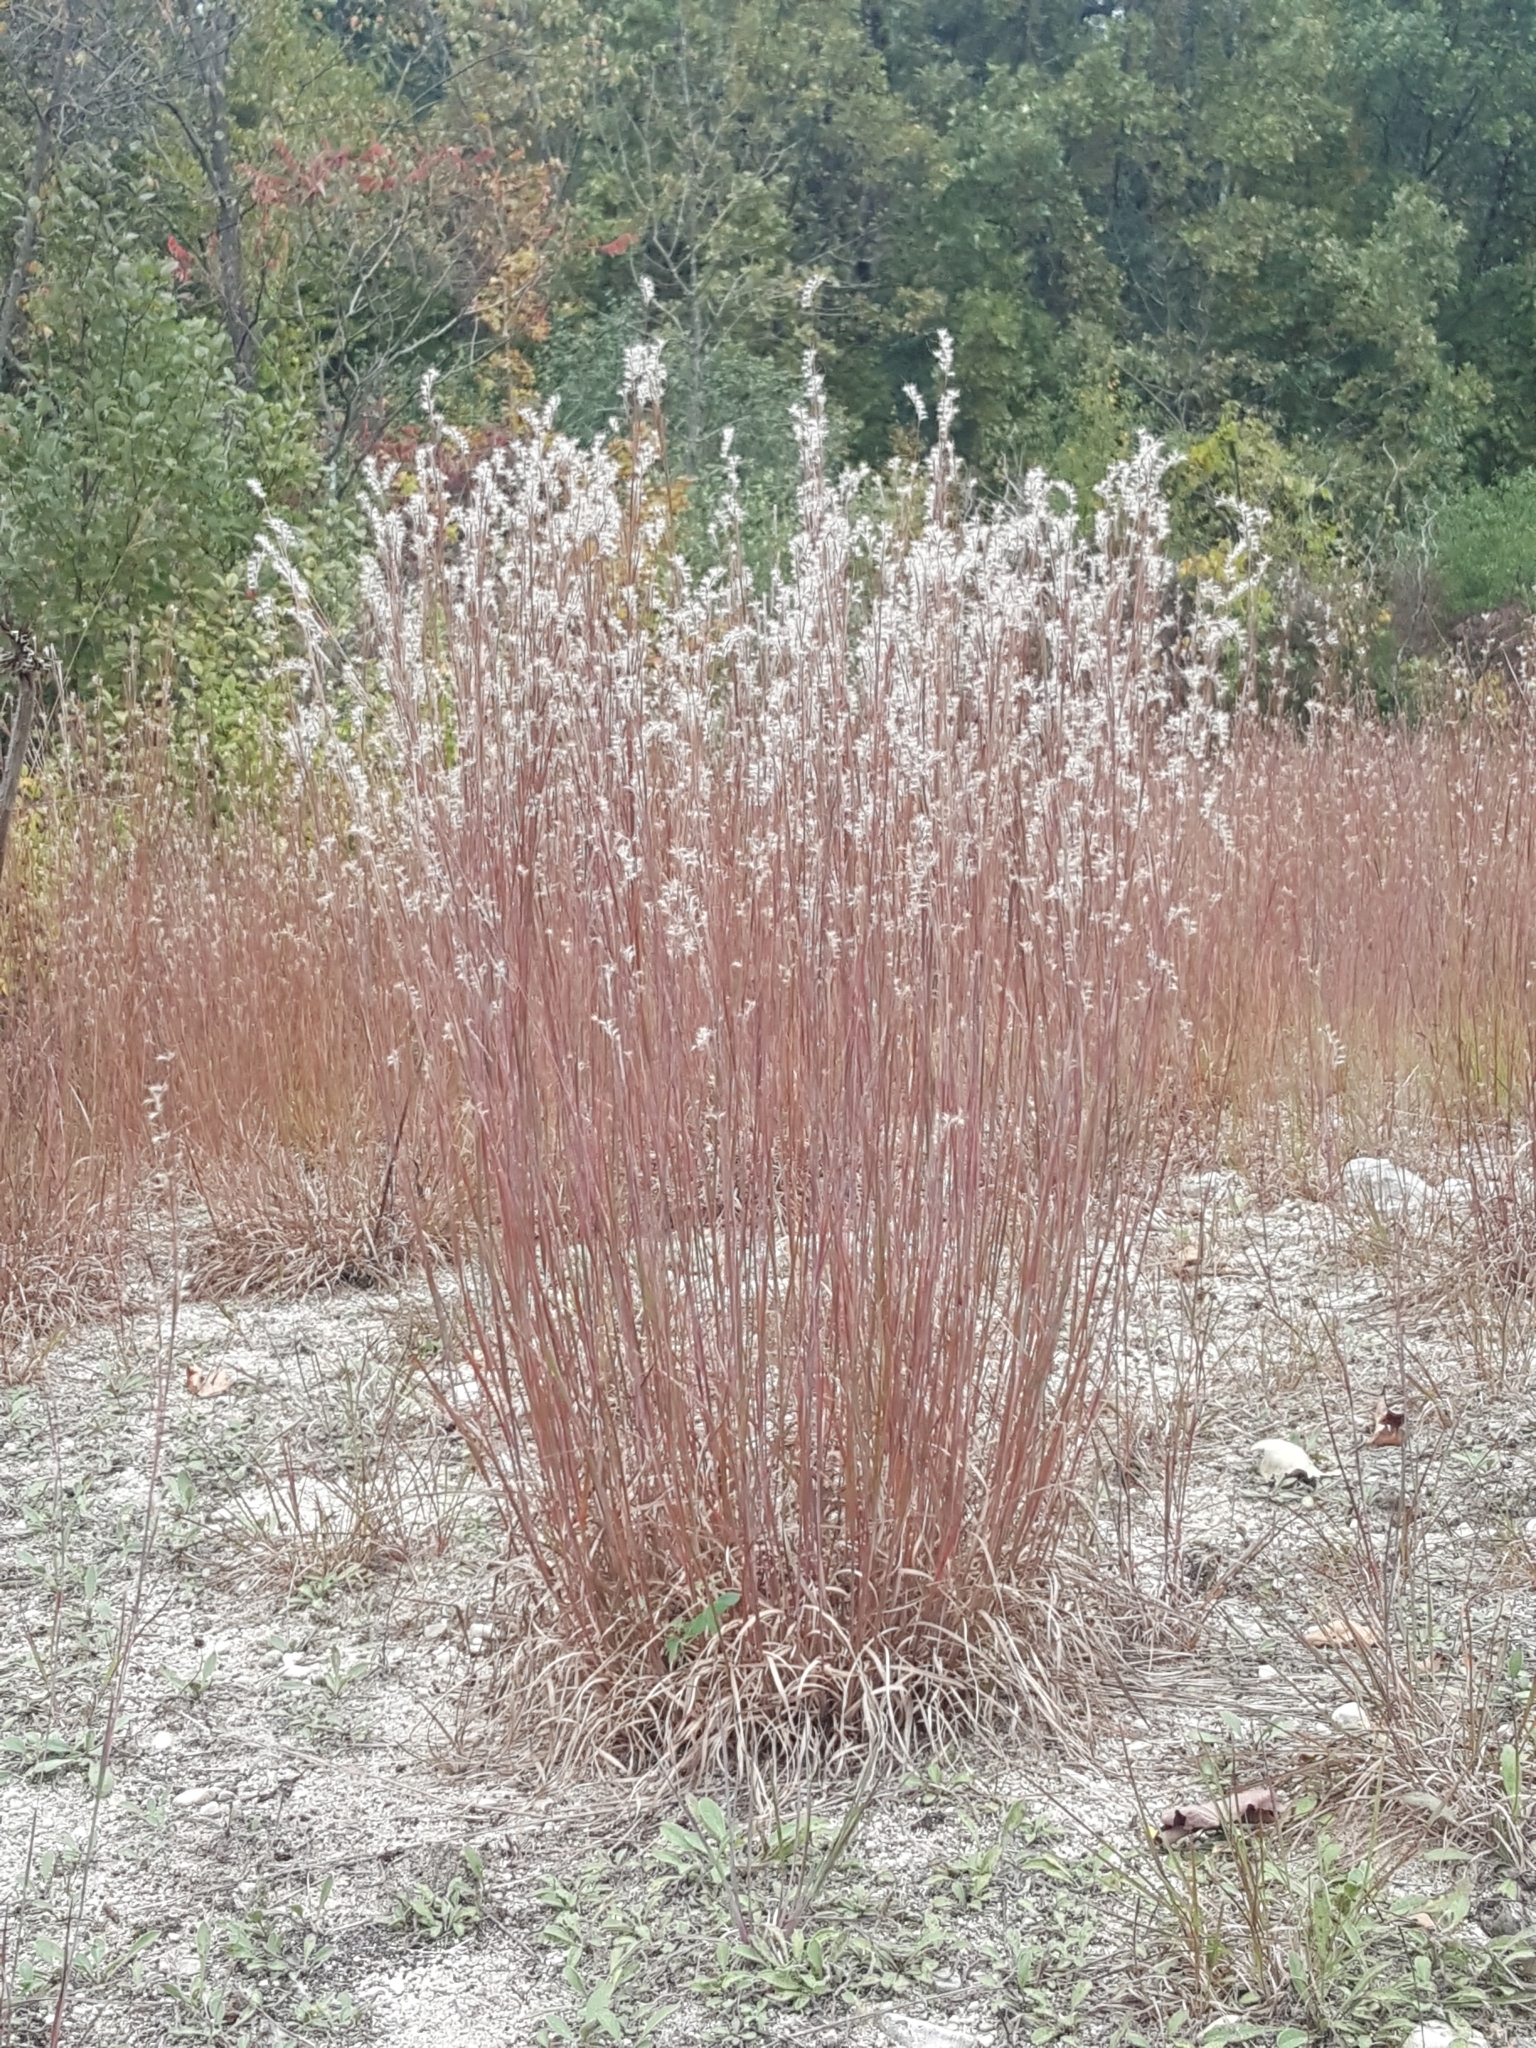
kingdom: Plantae
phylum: Tracheophyta
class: Liliopsida
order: Poales
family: Poaceae
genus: Schizachyrium
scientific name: Schizachyrium scoparium
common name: Little bluestem
